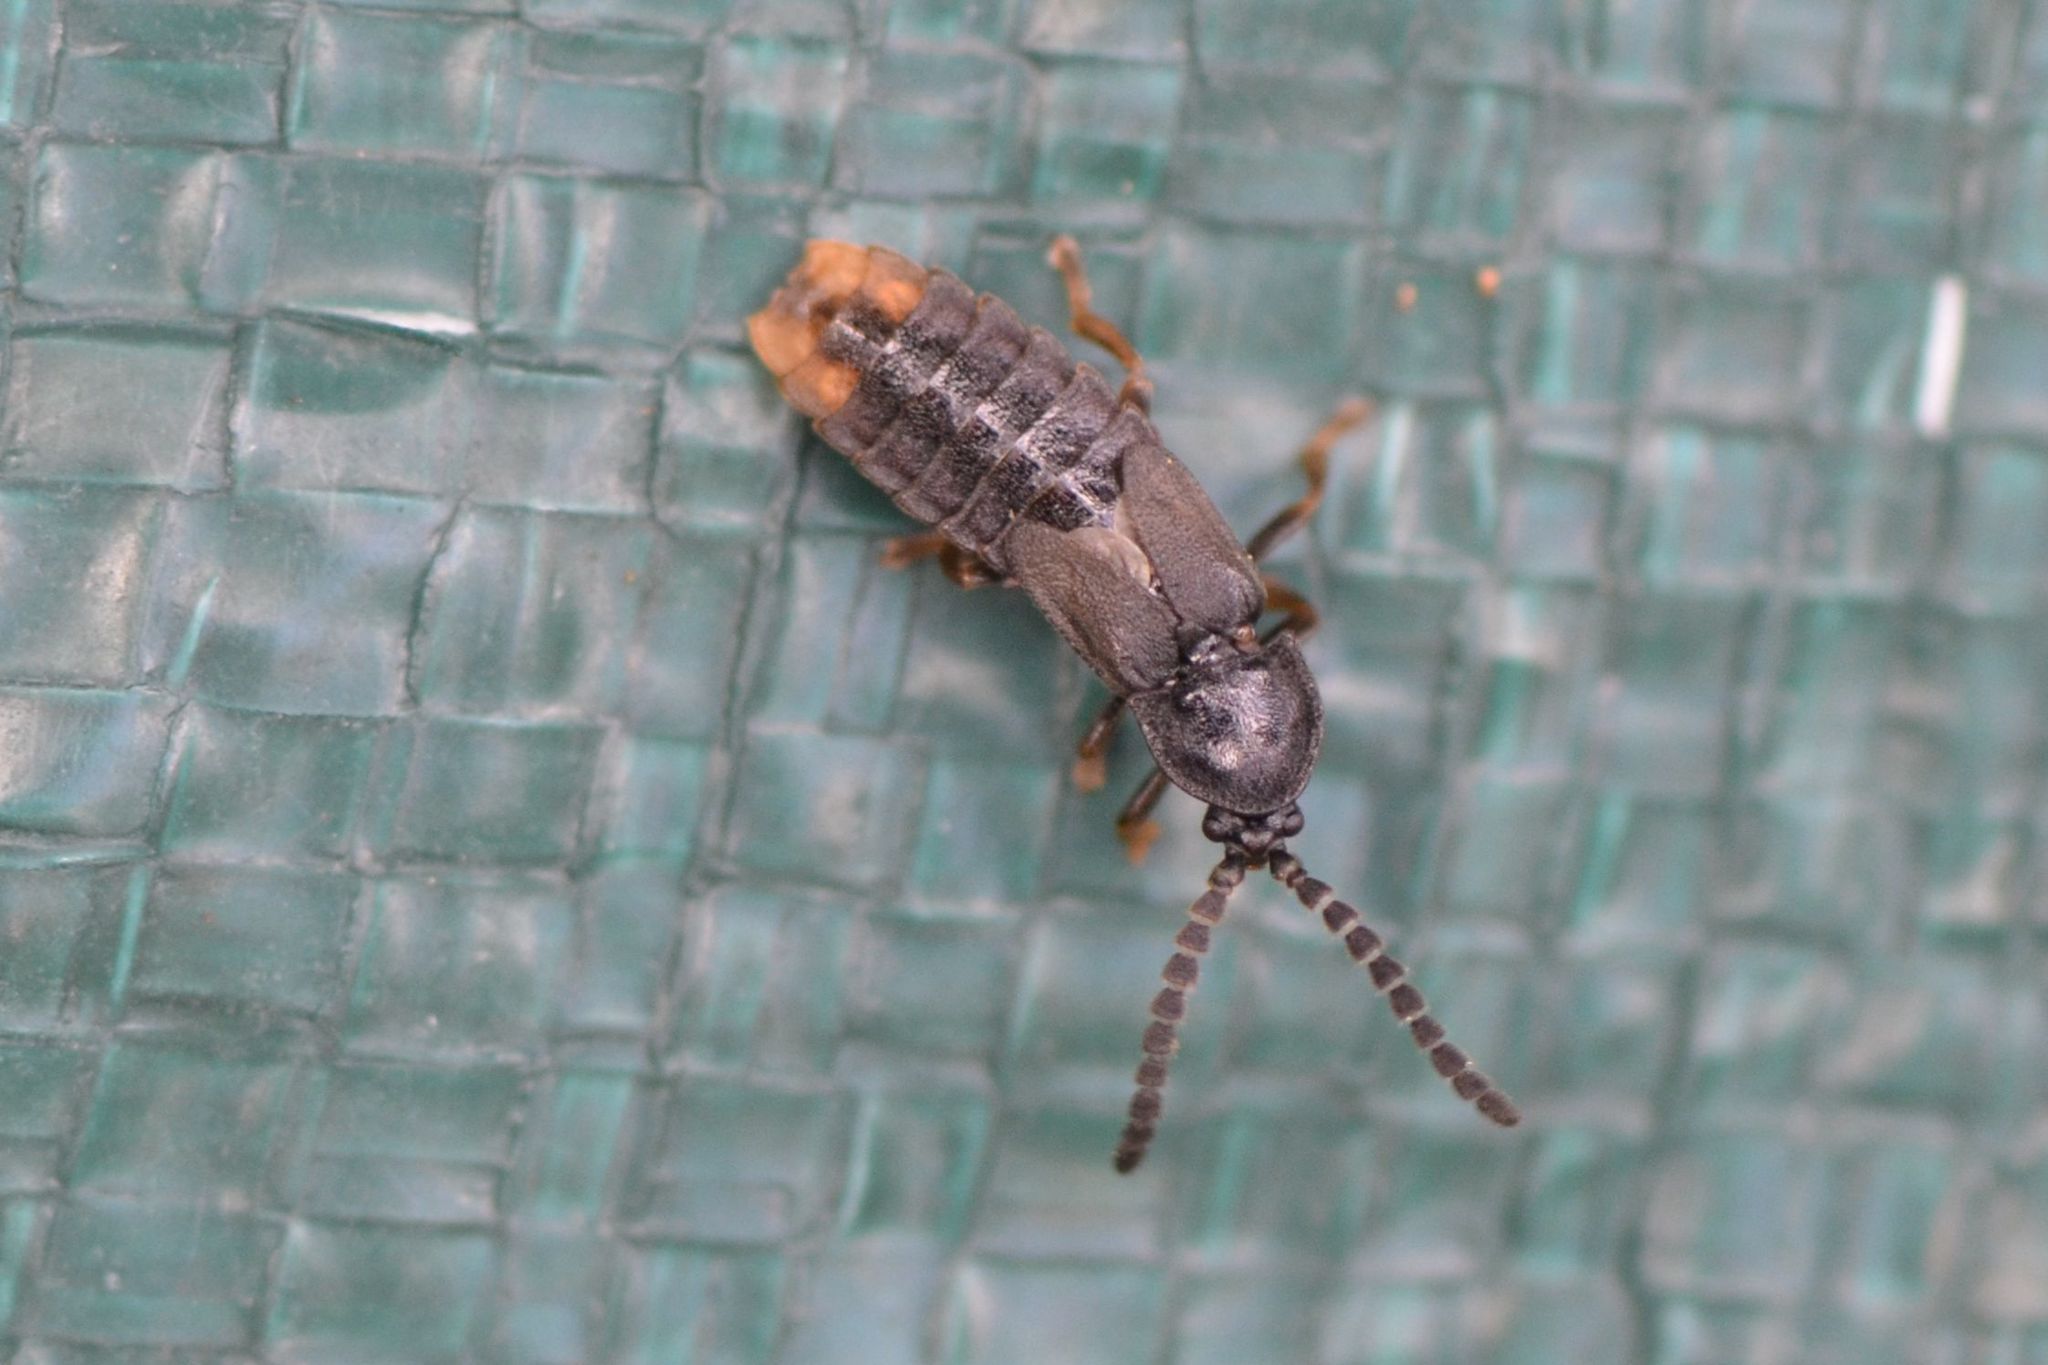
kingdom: Animalia
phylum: Arthropoda
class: Insecta
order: Coleoptera
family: Lampyridae
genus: Phosphaenus
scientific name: Phosphaenus hemipterus
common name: Short-winged firefly
